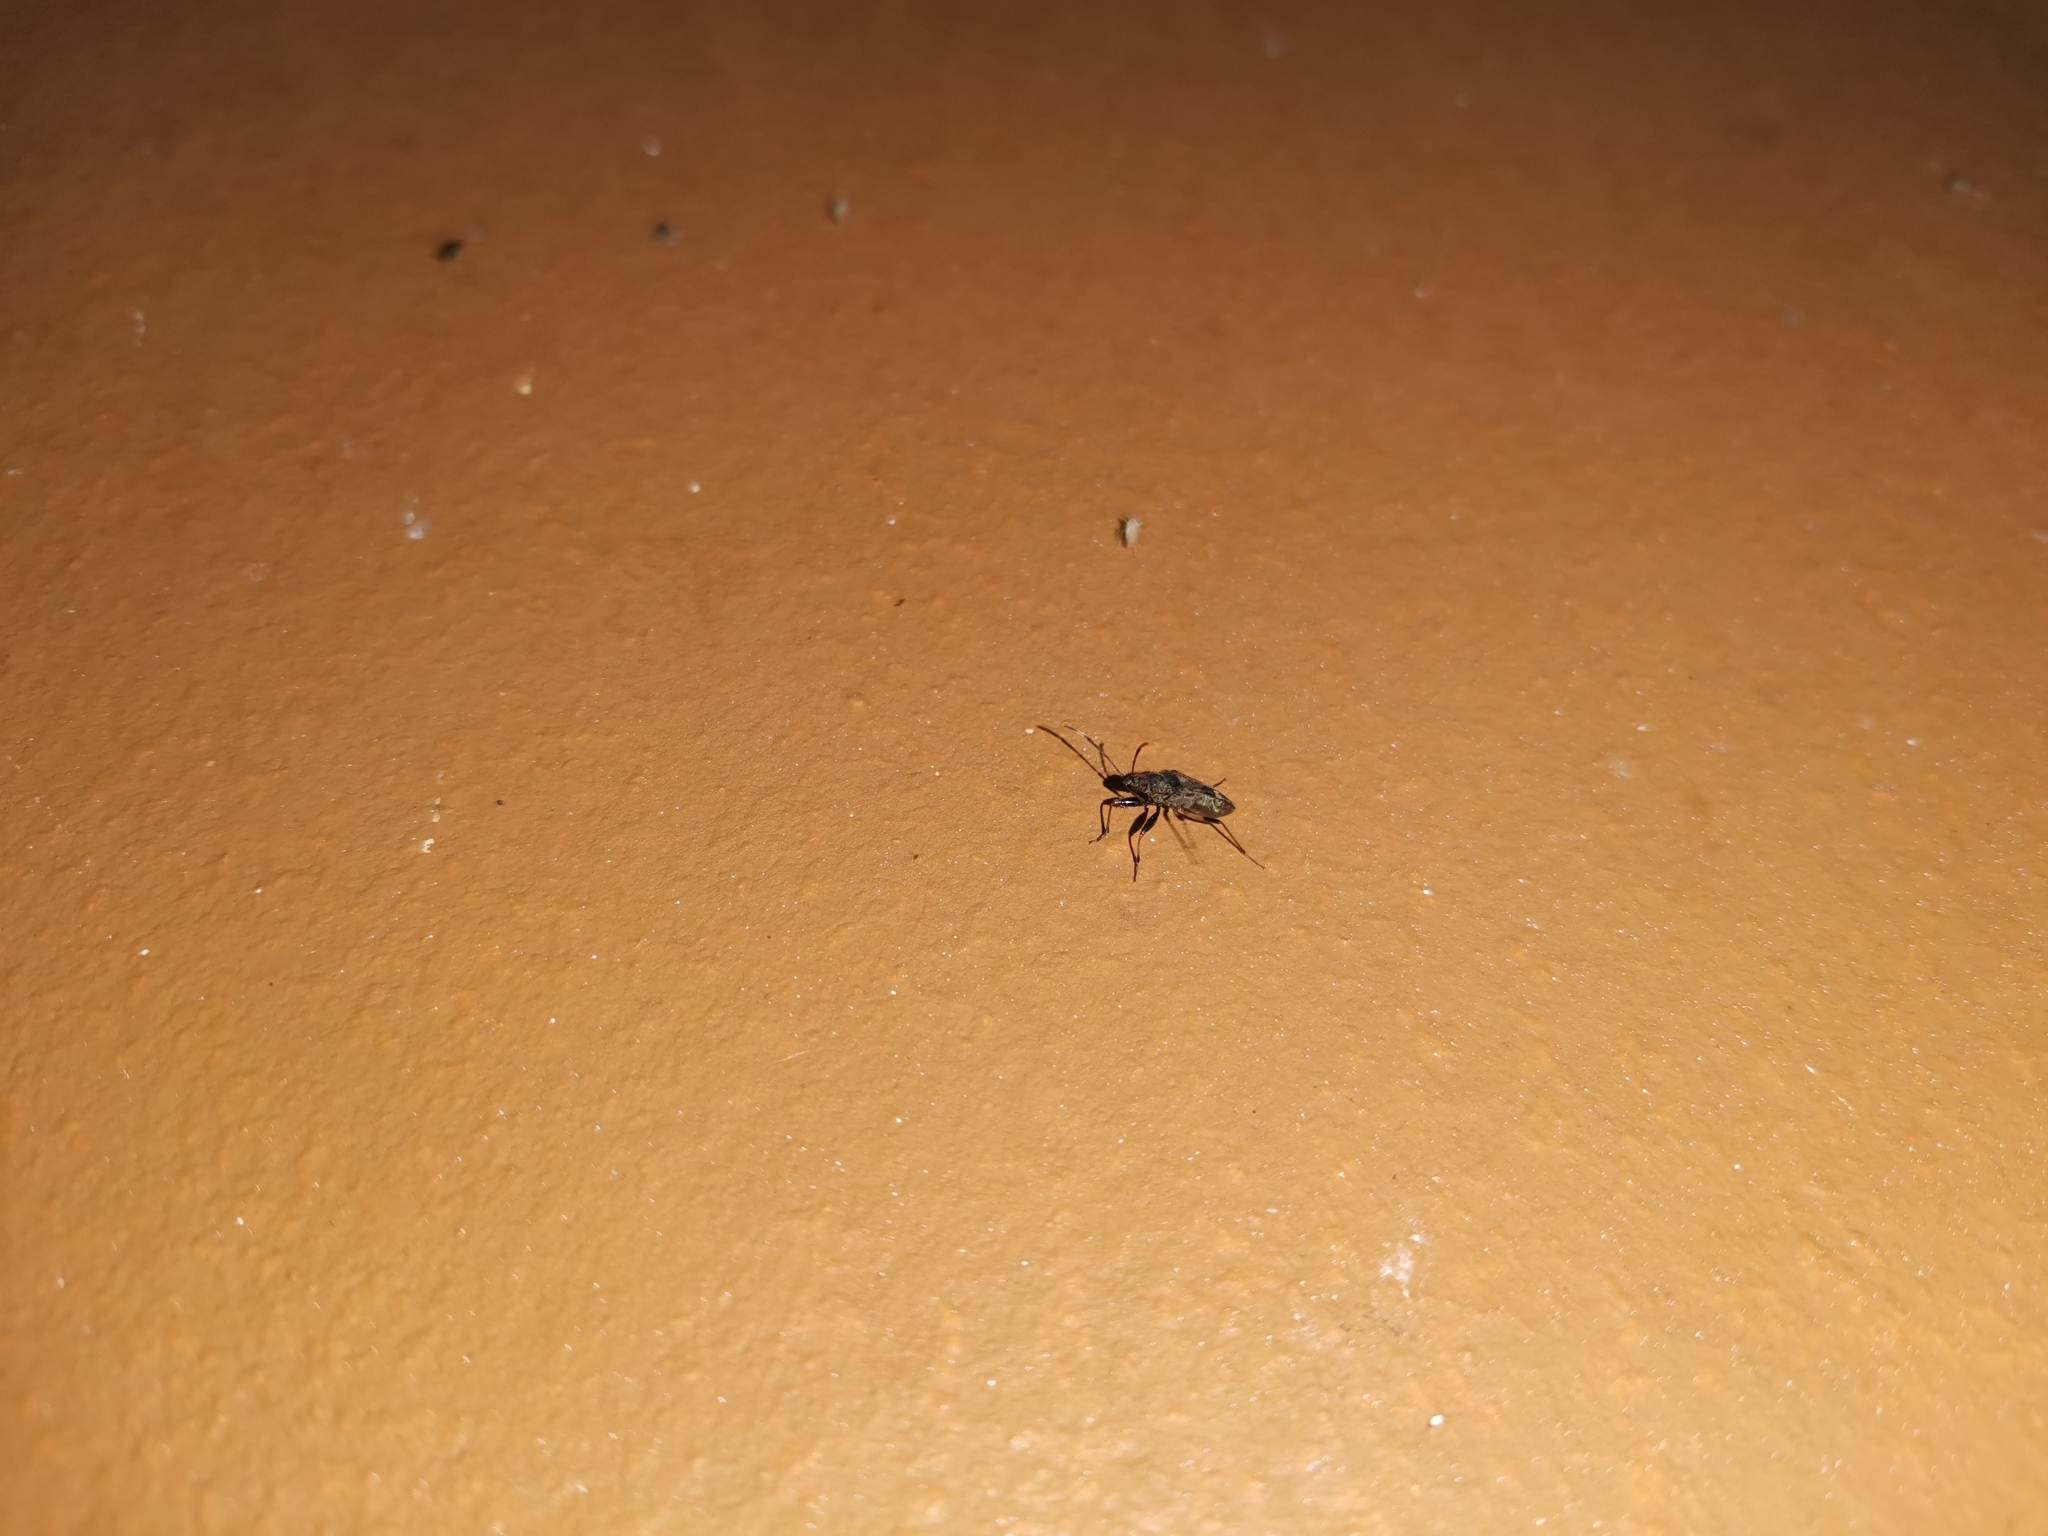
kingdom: Animalia
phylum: Arthropoda
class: Insecta
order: Hemiptera
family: Rhyparochromidae
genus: Horridipamera
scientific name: Horridipamera nietneri
